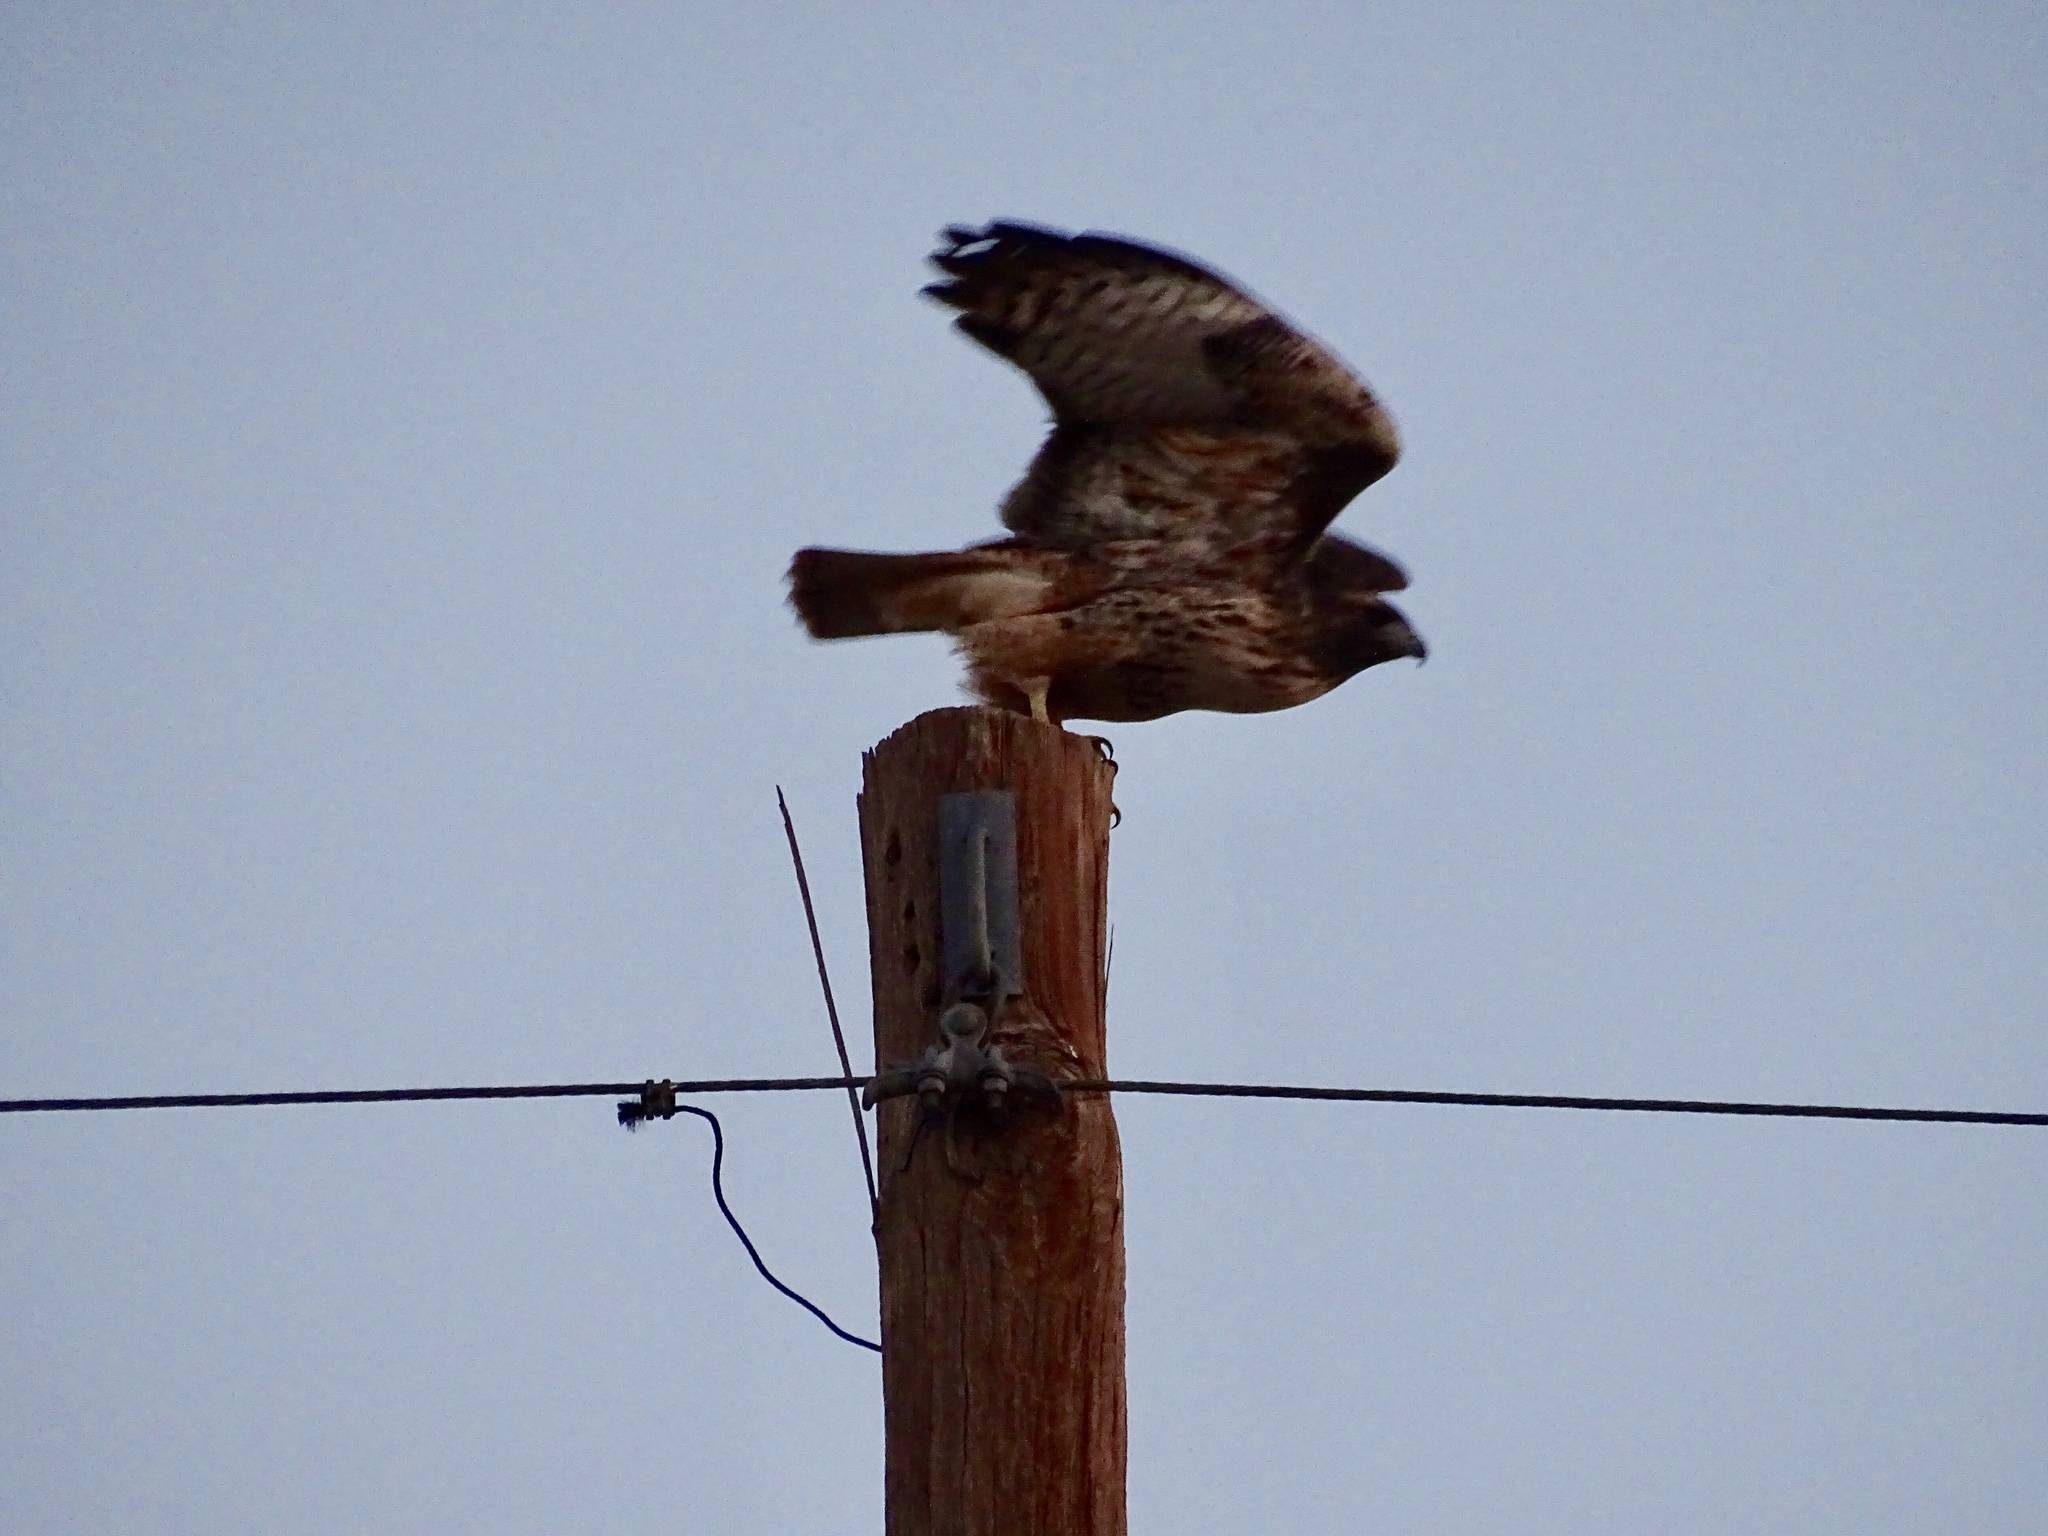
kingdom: Animalia
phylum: Chordata
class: Aves
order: Accipitriformes
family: Accipitridae
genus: Buteo
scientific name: Buteo jamaicensis
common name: Red-tailed hawk
